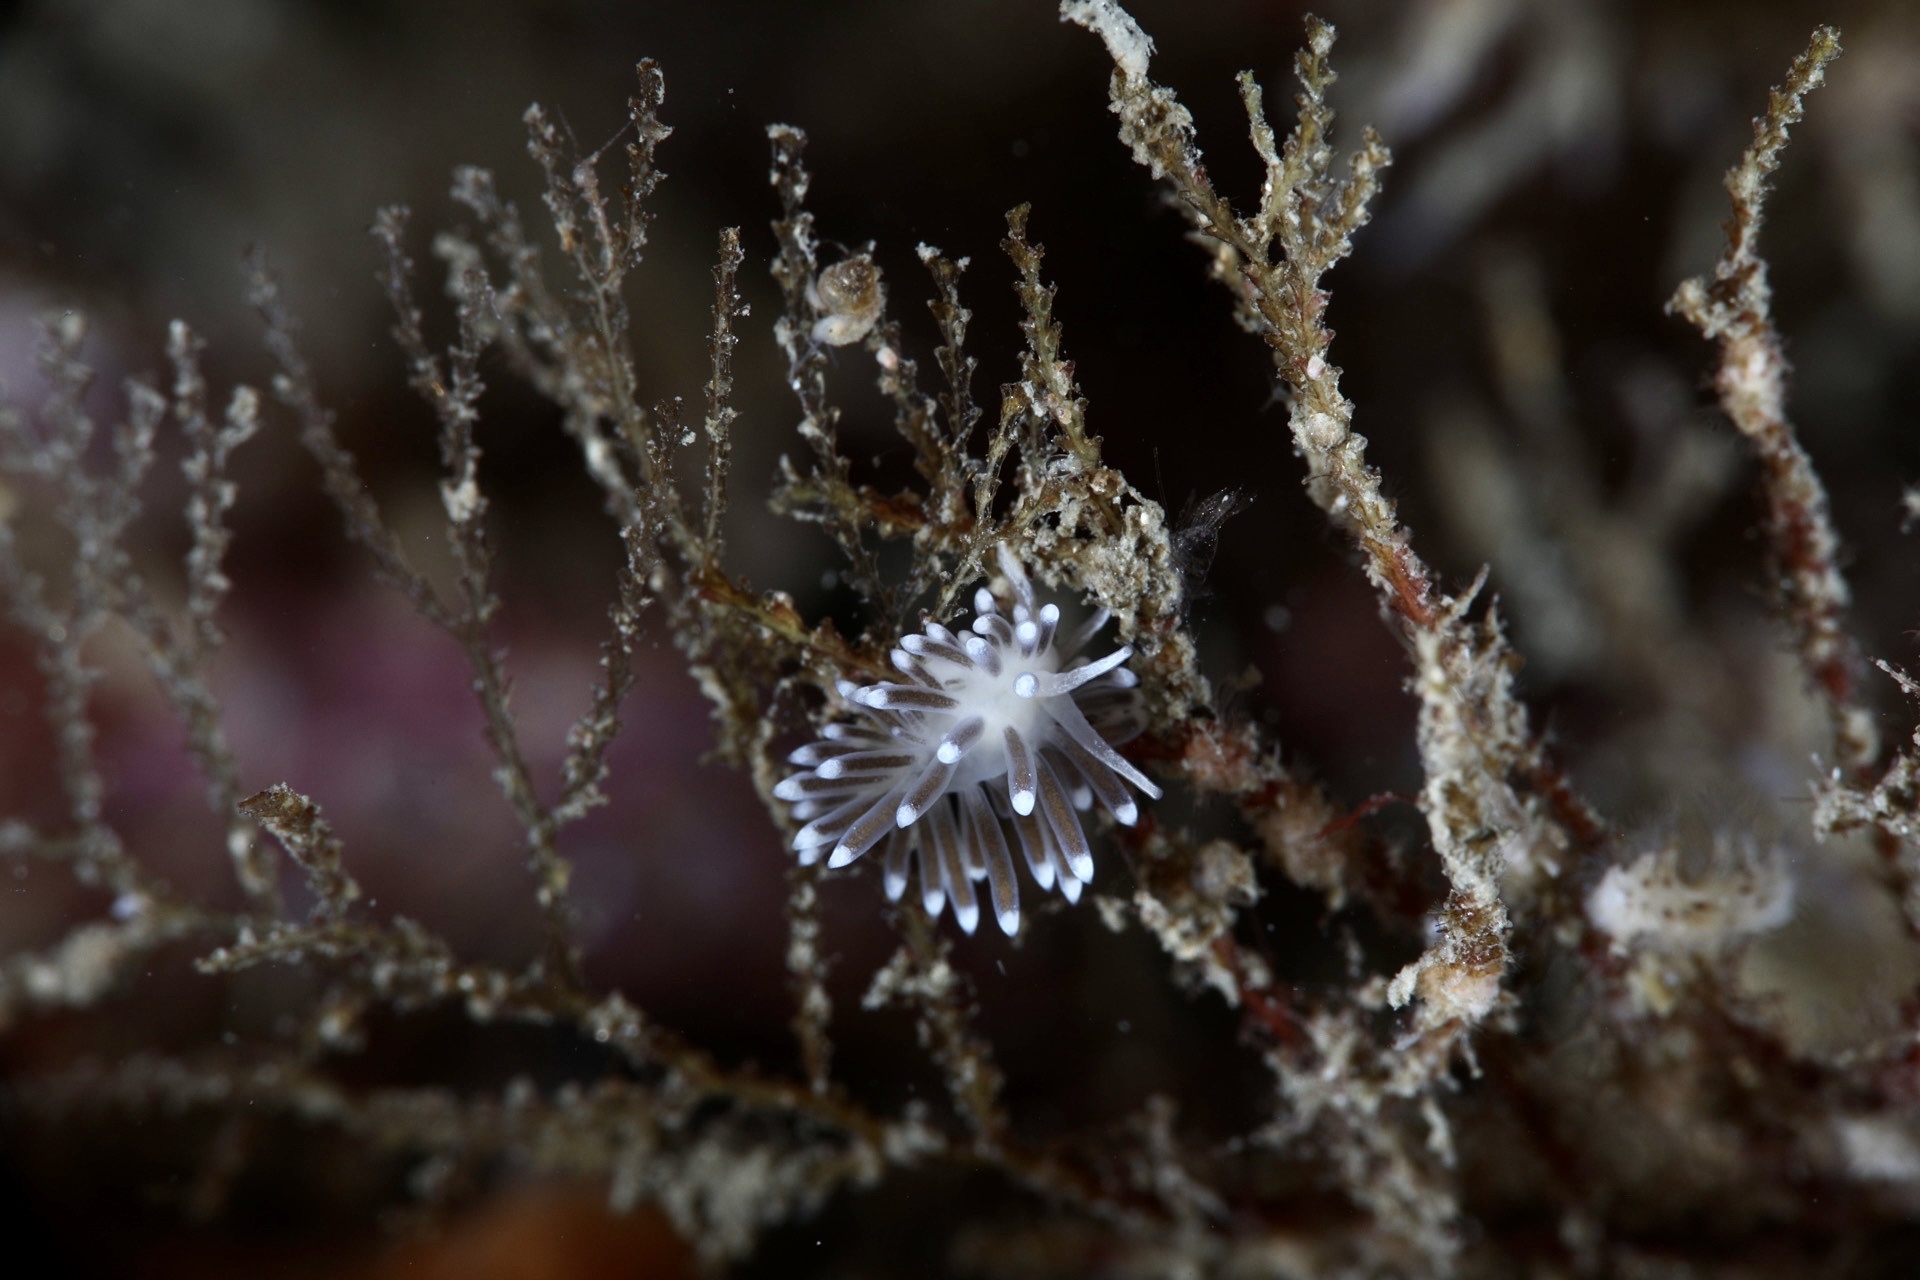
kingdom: Animalia
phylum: Mollusca
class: Gastropoda
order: Nudibranchia
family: Cuthonellidae
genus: Cuthonella
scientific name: Cuthonella concinna
